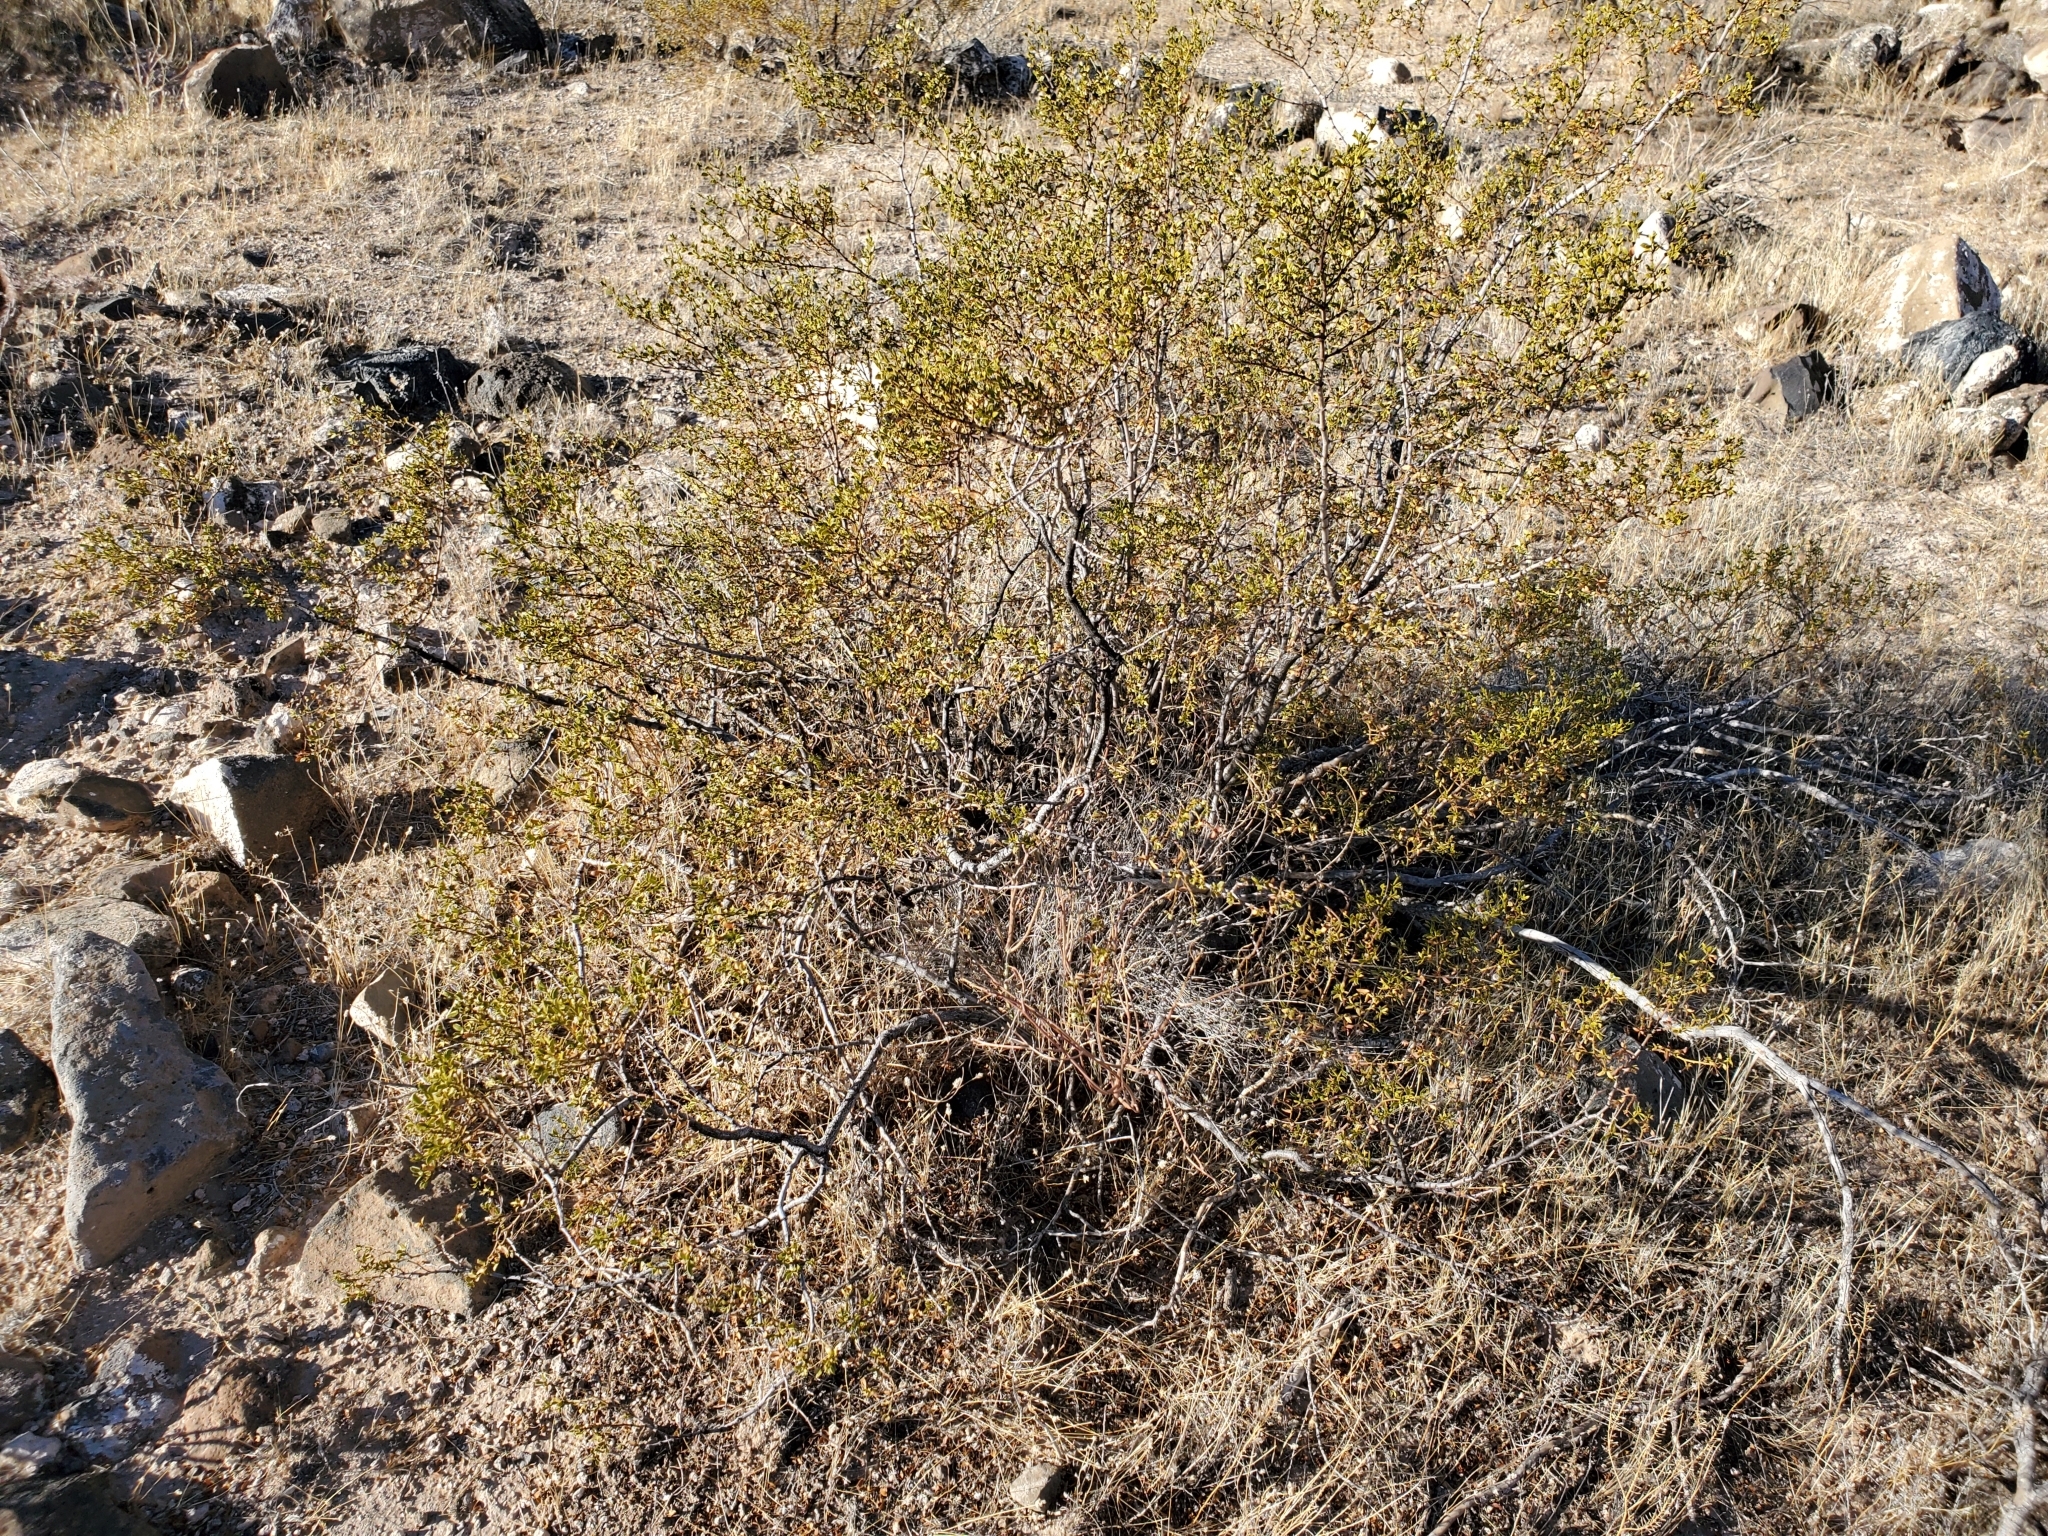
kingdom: Plantae
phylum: Tracheophyta
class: Magnoliopsida
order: Zygophyllales
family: Zygophyllaceae
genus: Larrea
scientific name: Larrea tridentata
